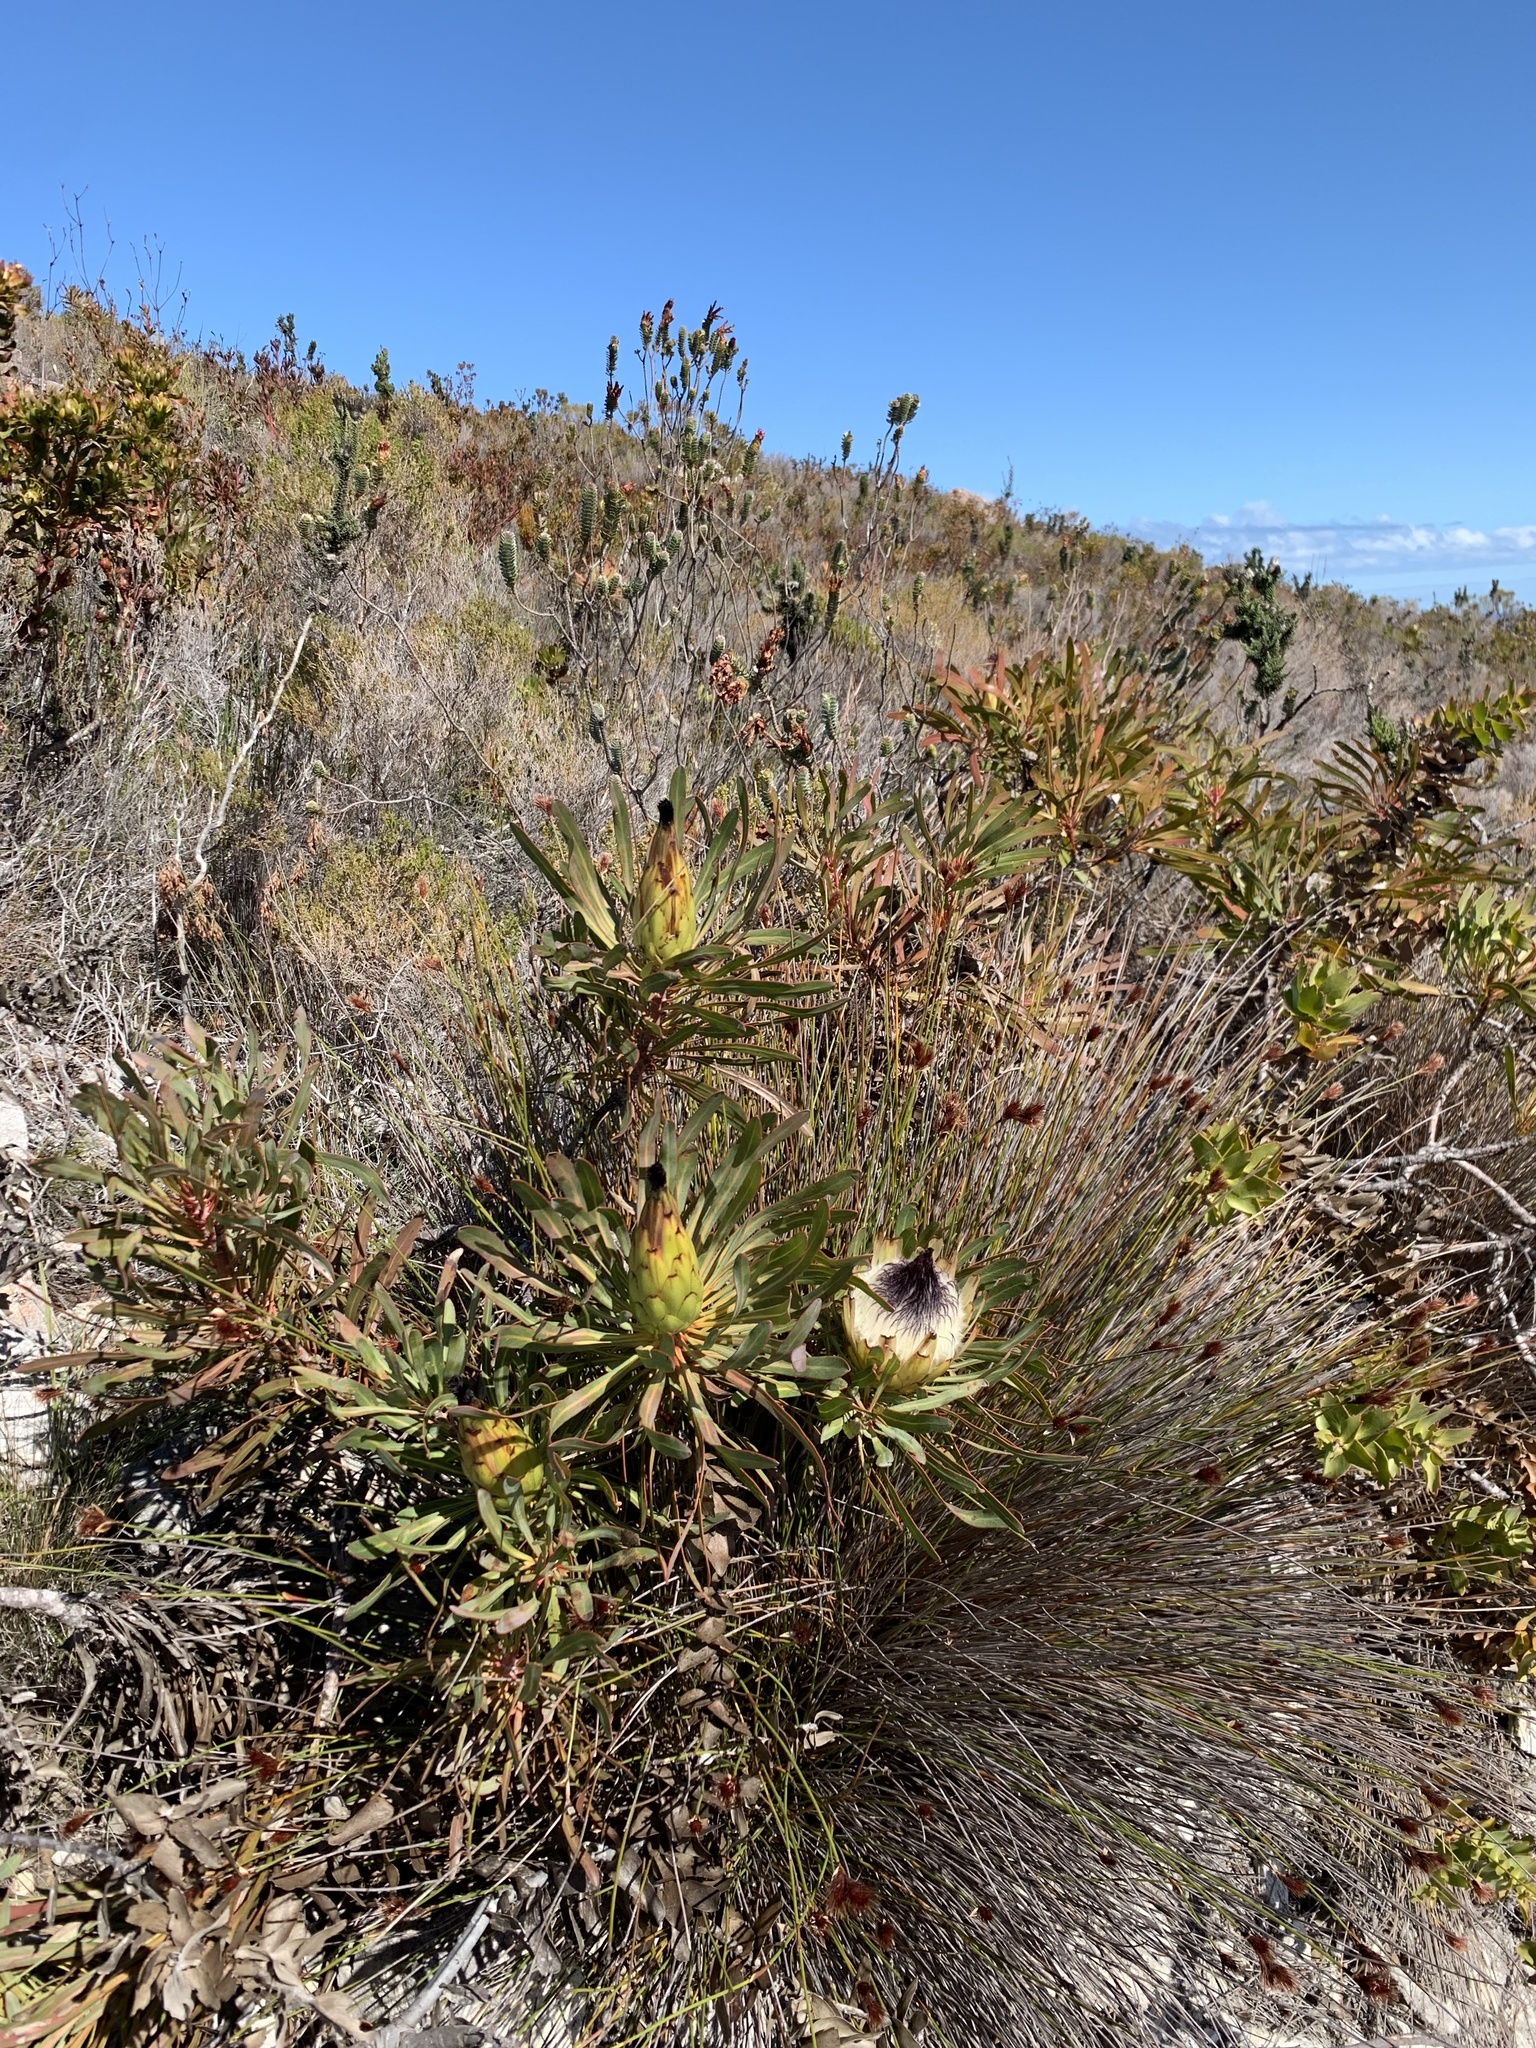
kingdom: Plantae
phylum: Tracheophyta
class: Magnoliopsida
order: Proteales
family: Proteaceae
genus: Protea
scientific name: Protea longifolia
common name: Long-leaf sugarbush
